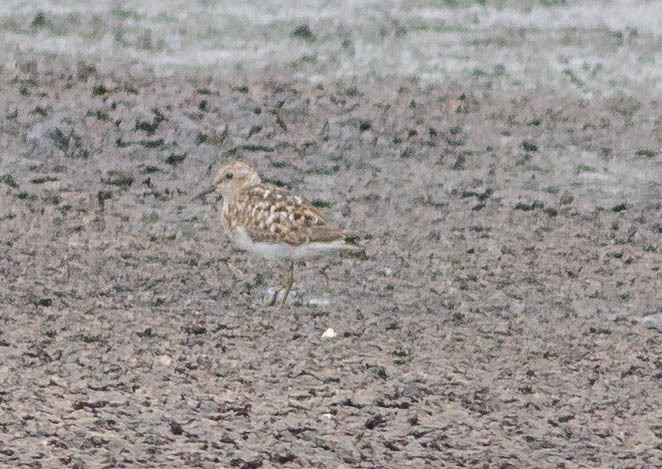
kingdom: Animalia
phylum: Chordata
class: Aves
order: Charadriiformes
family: Scolopacidae
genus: Calidris
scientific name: Calidris minutilla
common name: Least sandpiper
